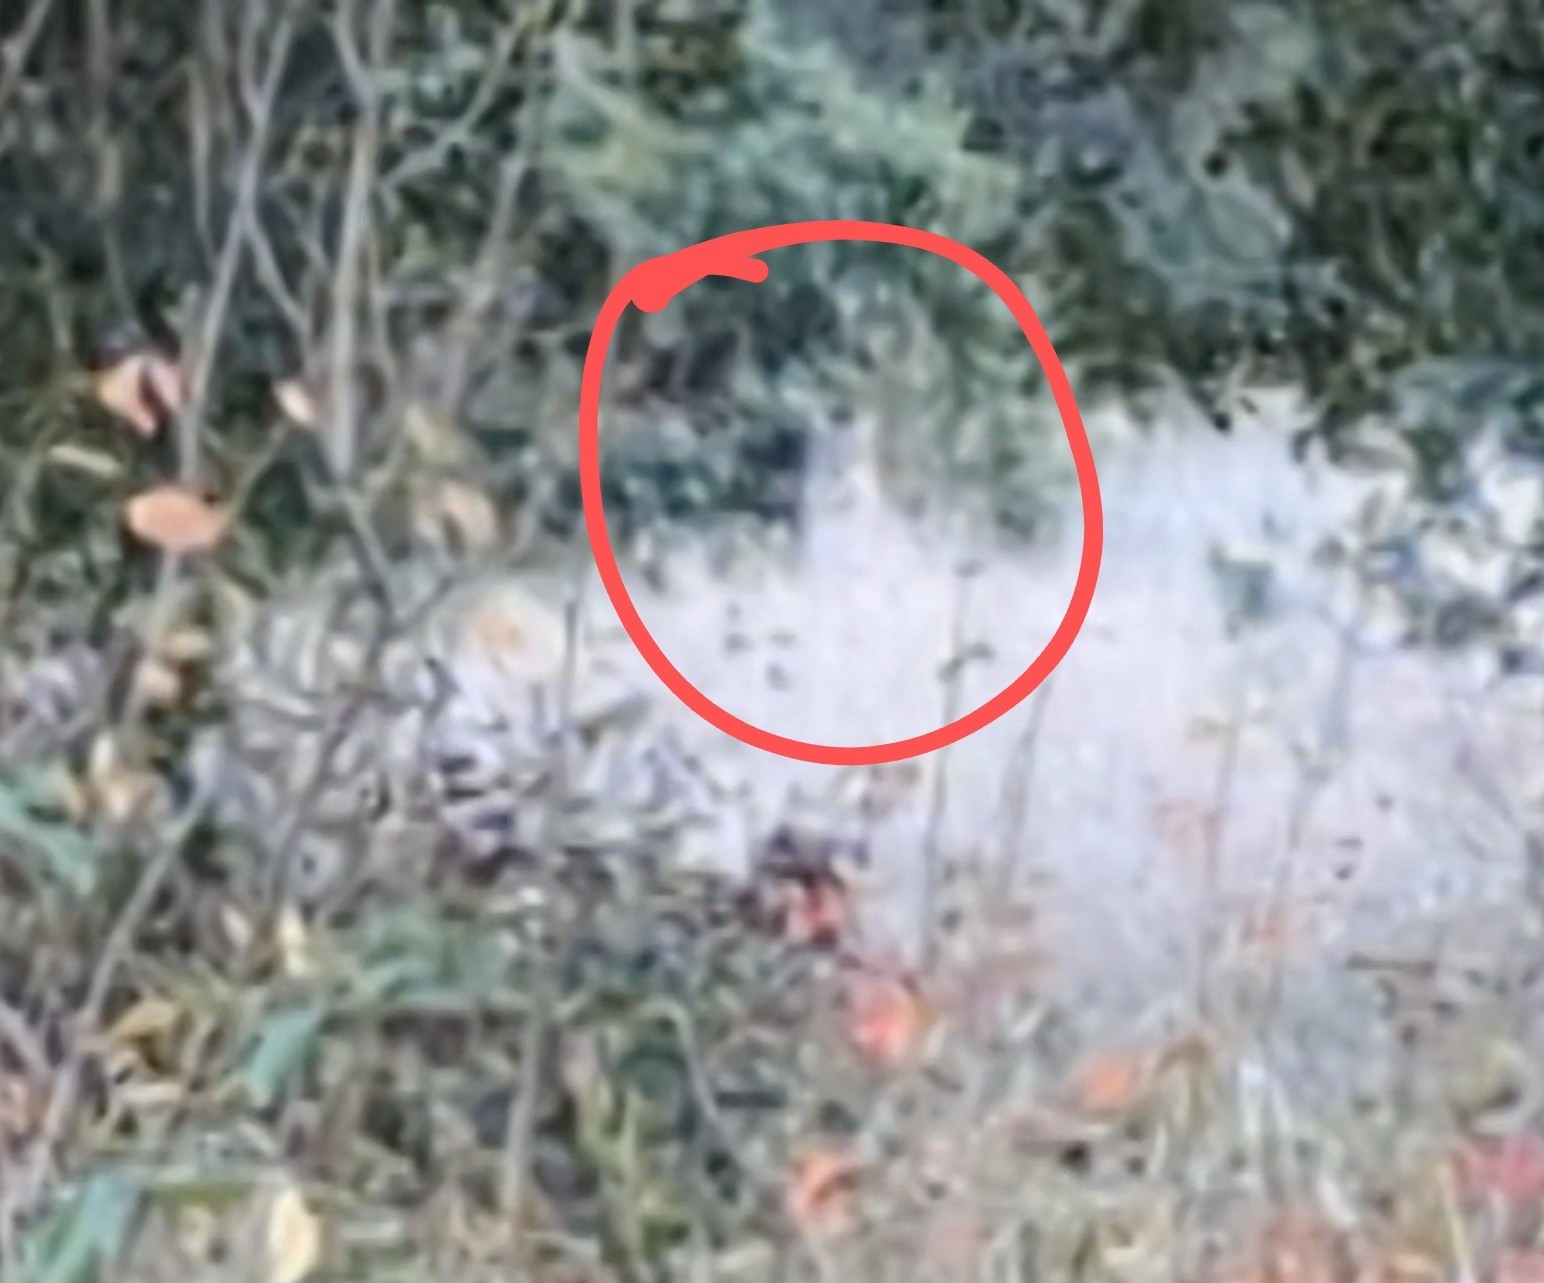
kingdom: Animalia
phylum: Chordata
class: Mammalia
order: Carnivora
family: Felidae
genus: Lynx
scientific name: Lynx rufus
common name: Bobcat
